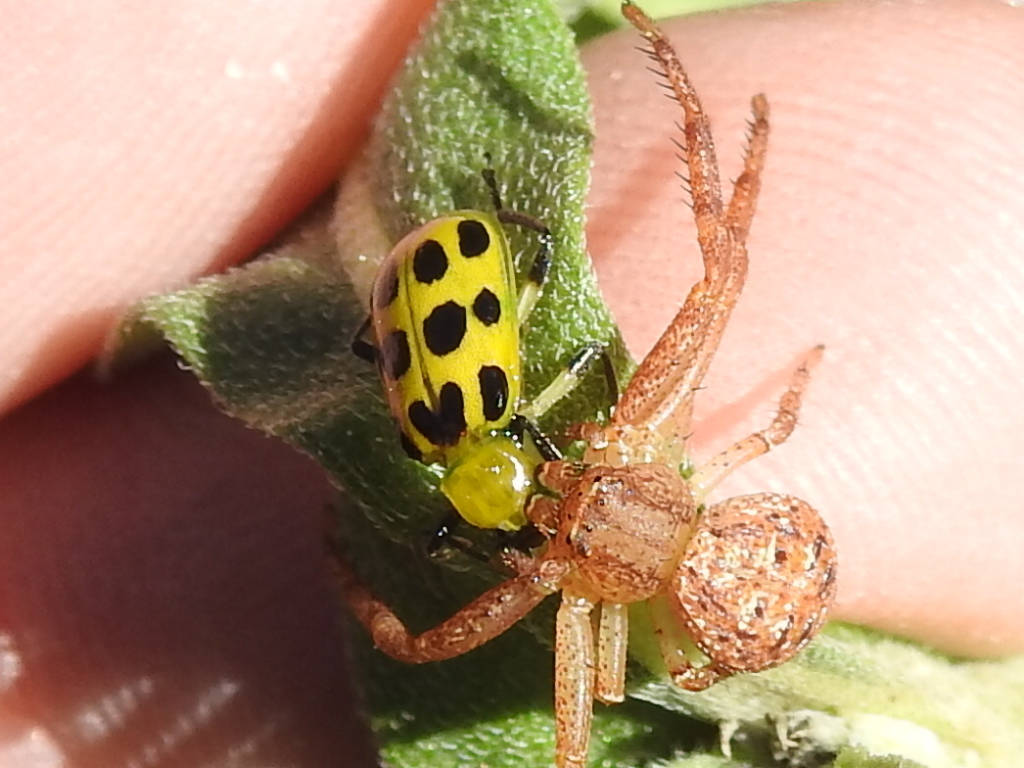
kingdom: Animalia
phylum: Arthropoda
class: Insecta
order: Coleoptera
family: Chrysomelidae
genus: Diabrotica
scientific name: Diabrotica undecimpunctata
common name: Spotted cucumber beetle
